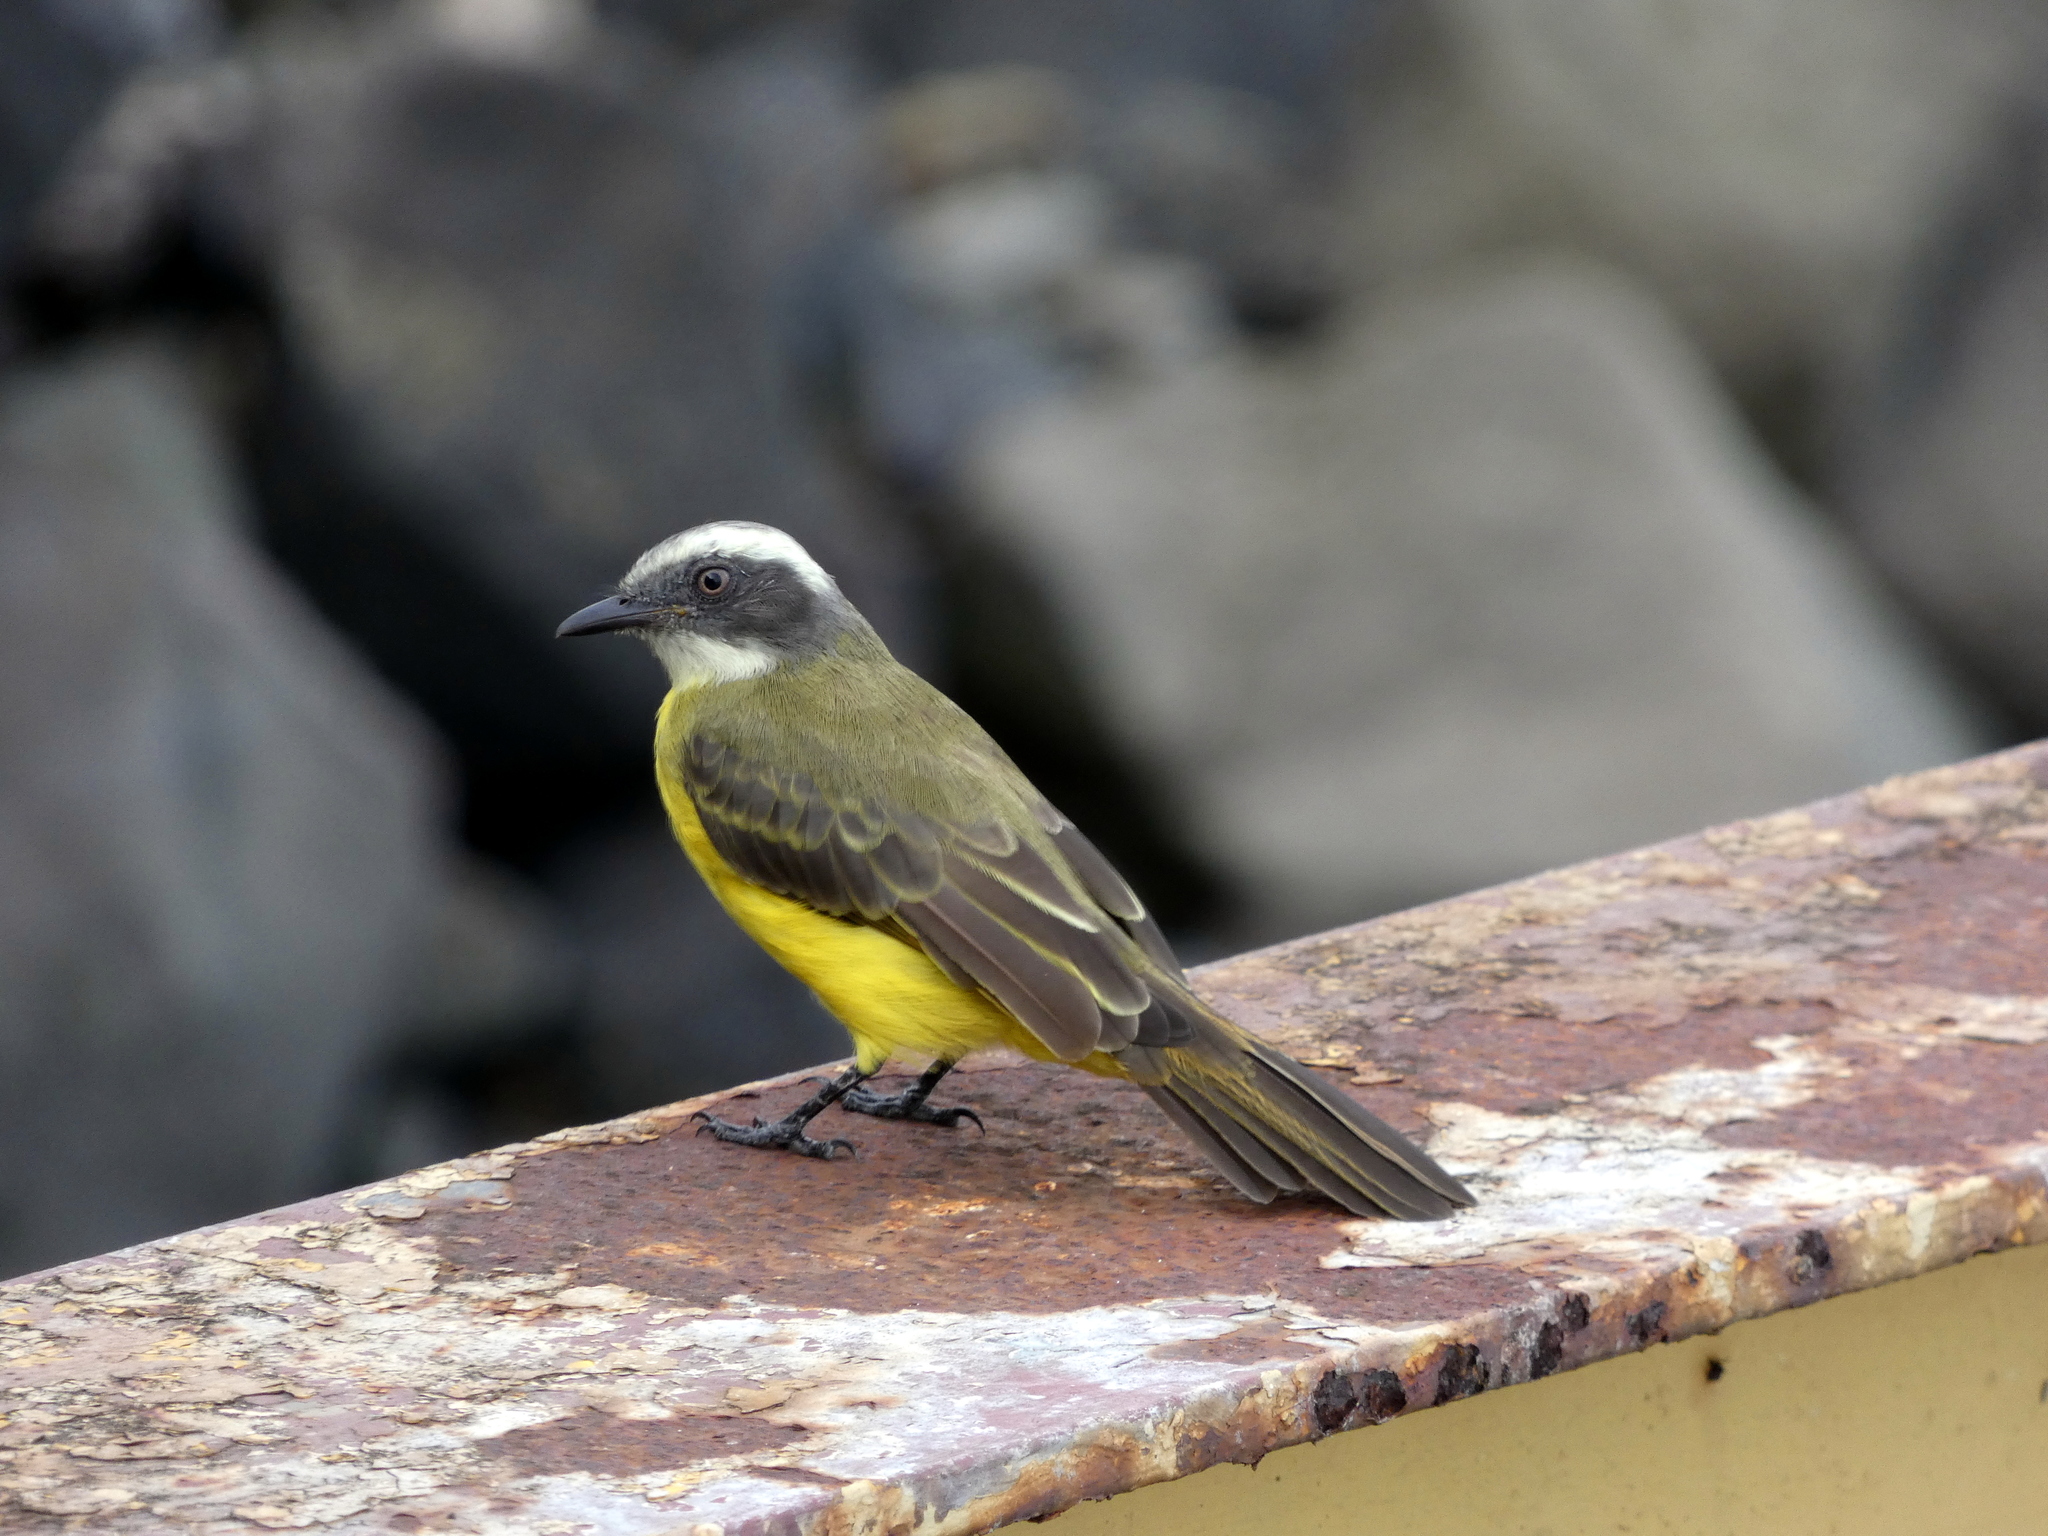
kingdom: Animalia
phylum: Chordata
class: Aves
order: Passeriformes
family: Tyrannidae
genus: Myiozetetes
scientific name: Myiozetetes similis
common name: Social flycatcher
